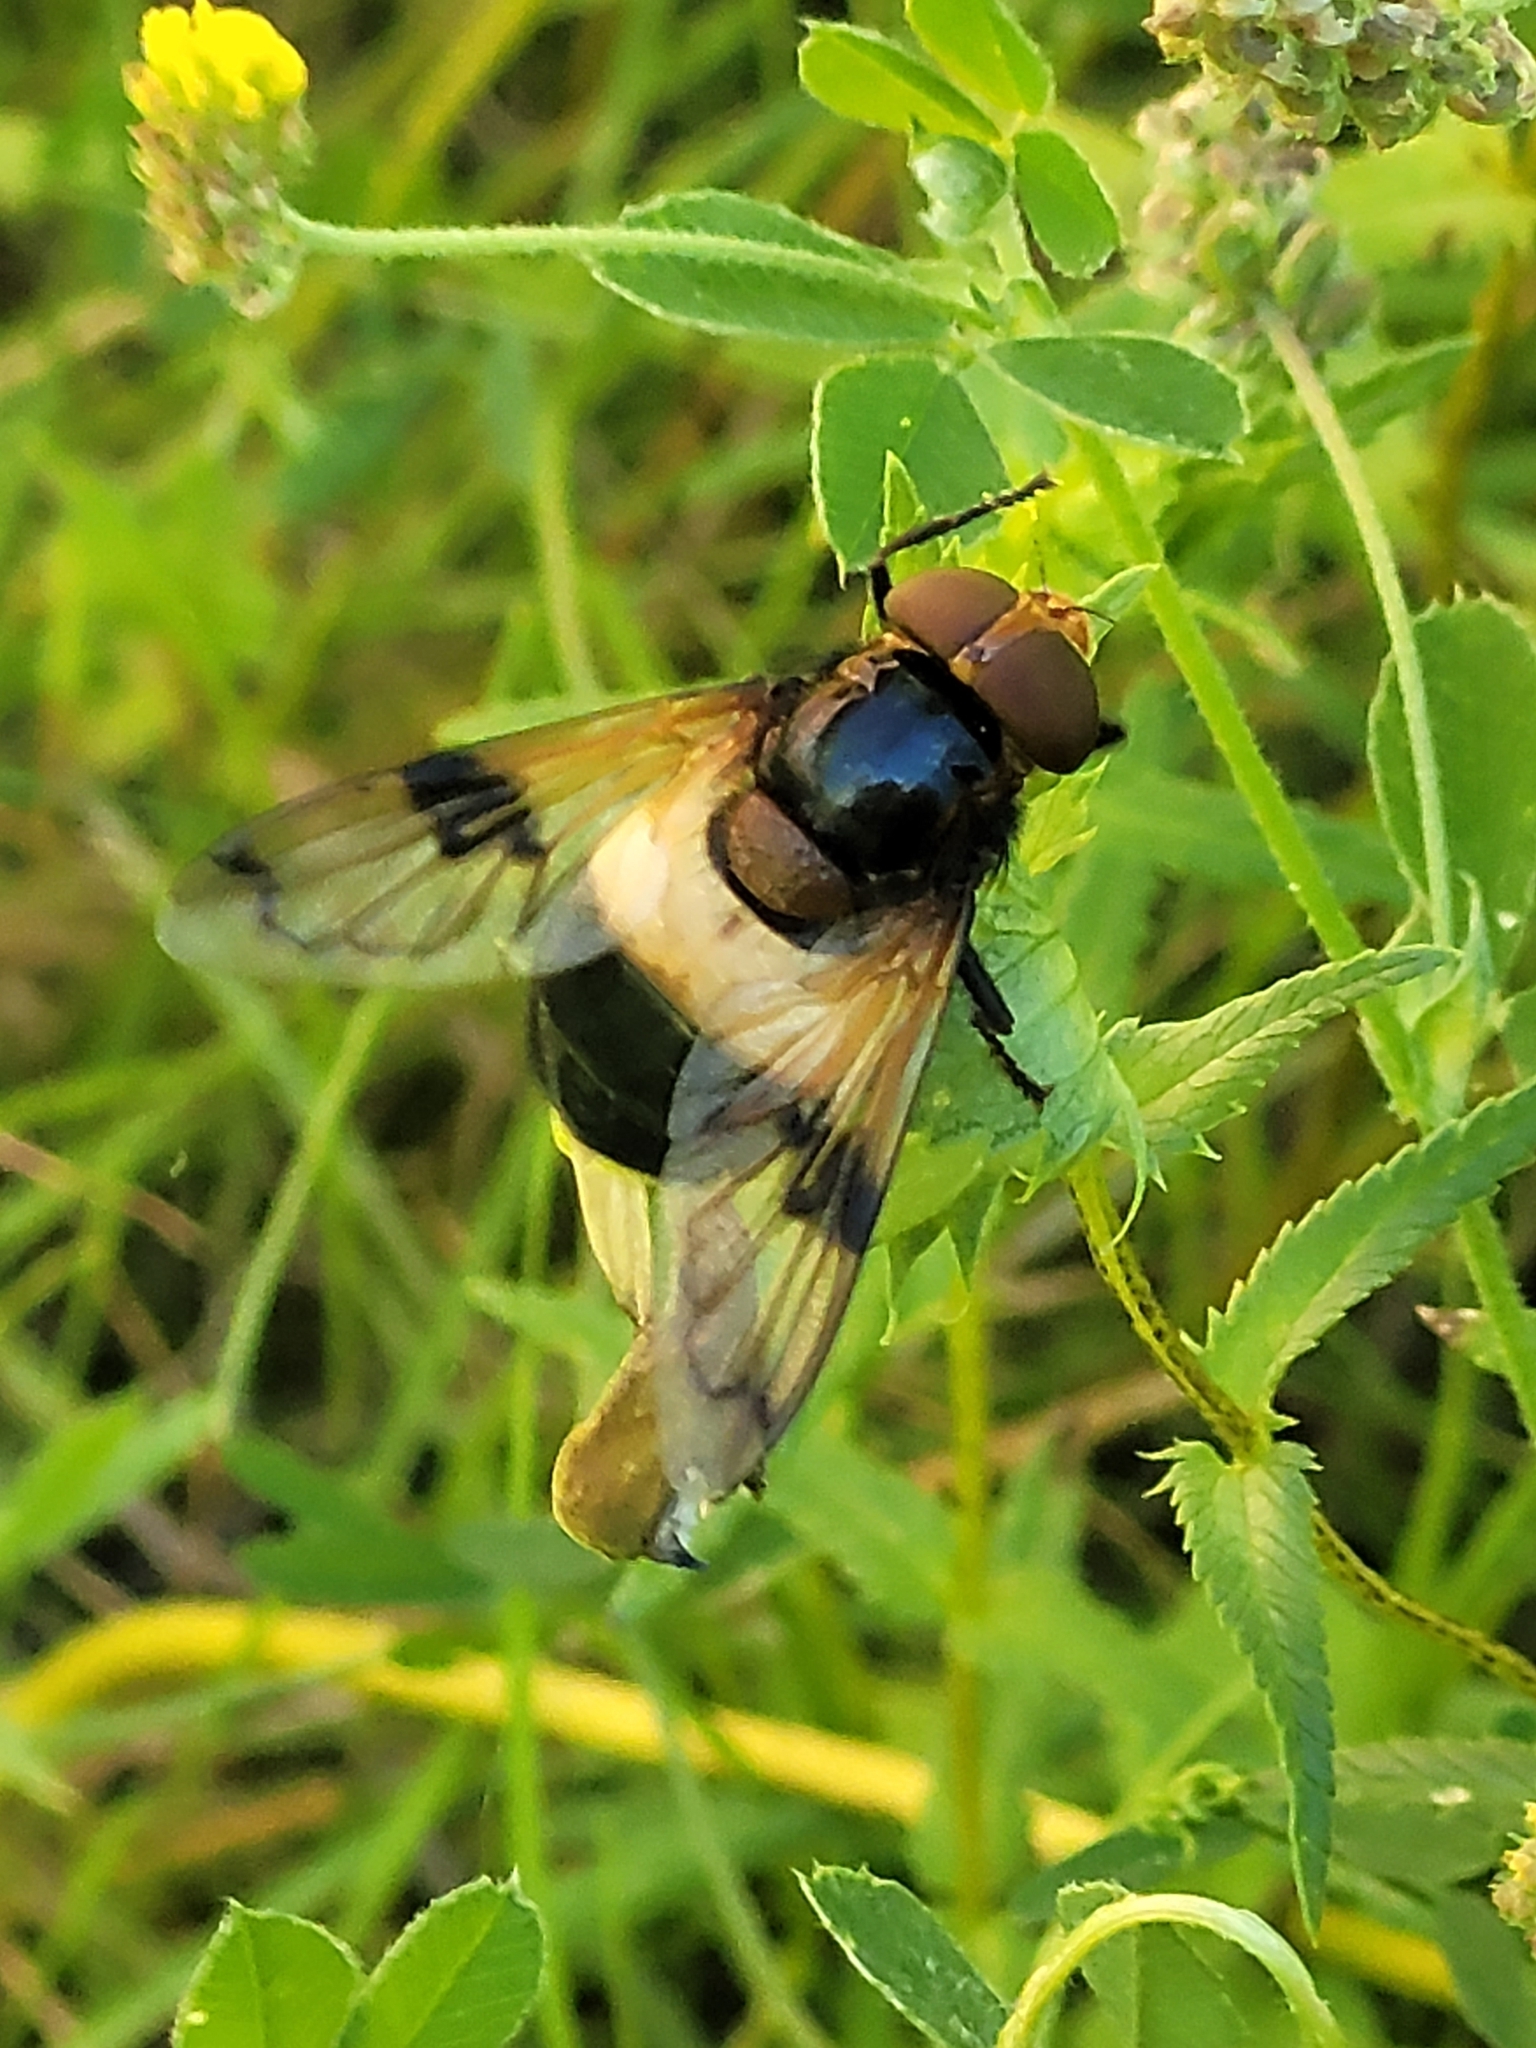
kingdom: Animalia
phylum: Arthropoda
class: Insecta
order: Diptera
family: Syrphidae
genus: Volucella
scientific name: Volucella pellucens
